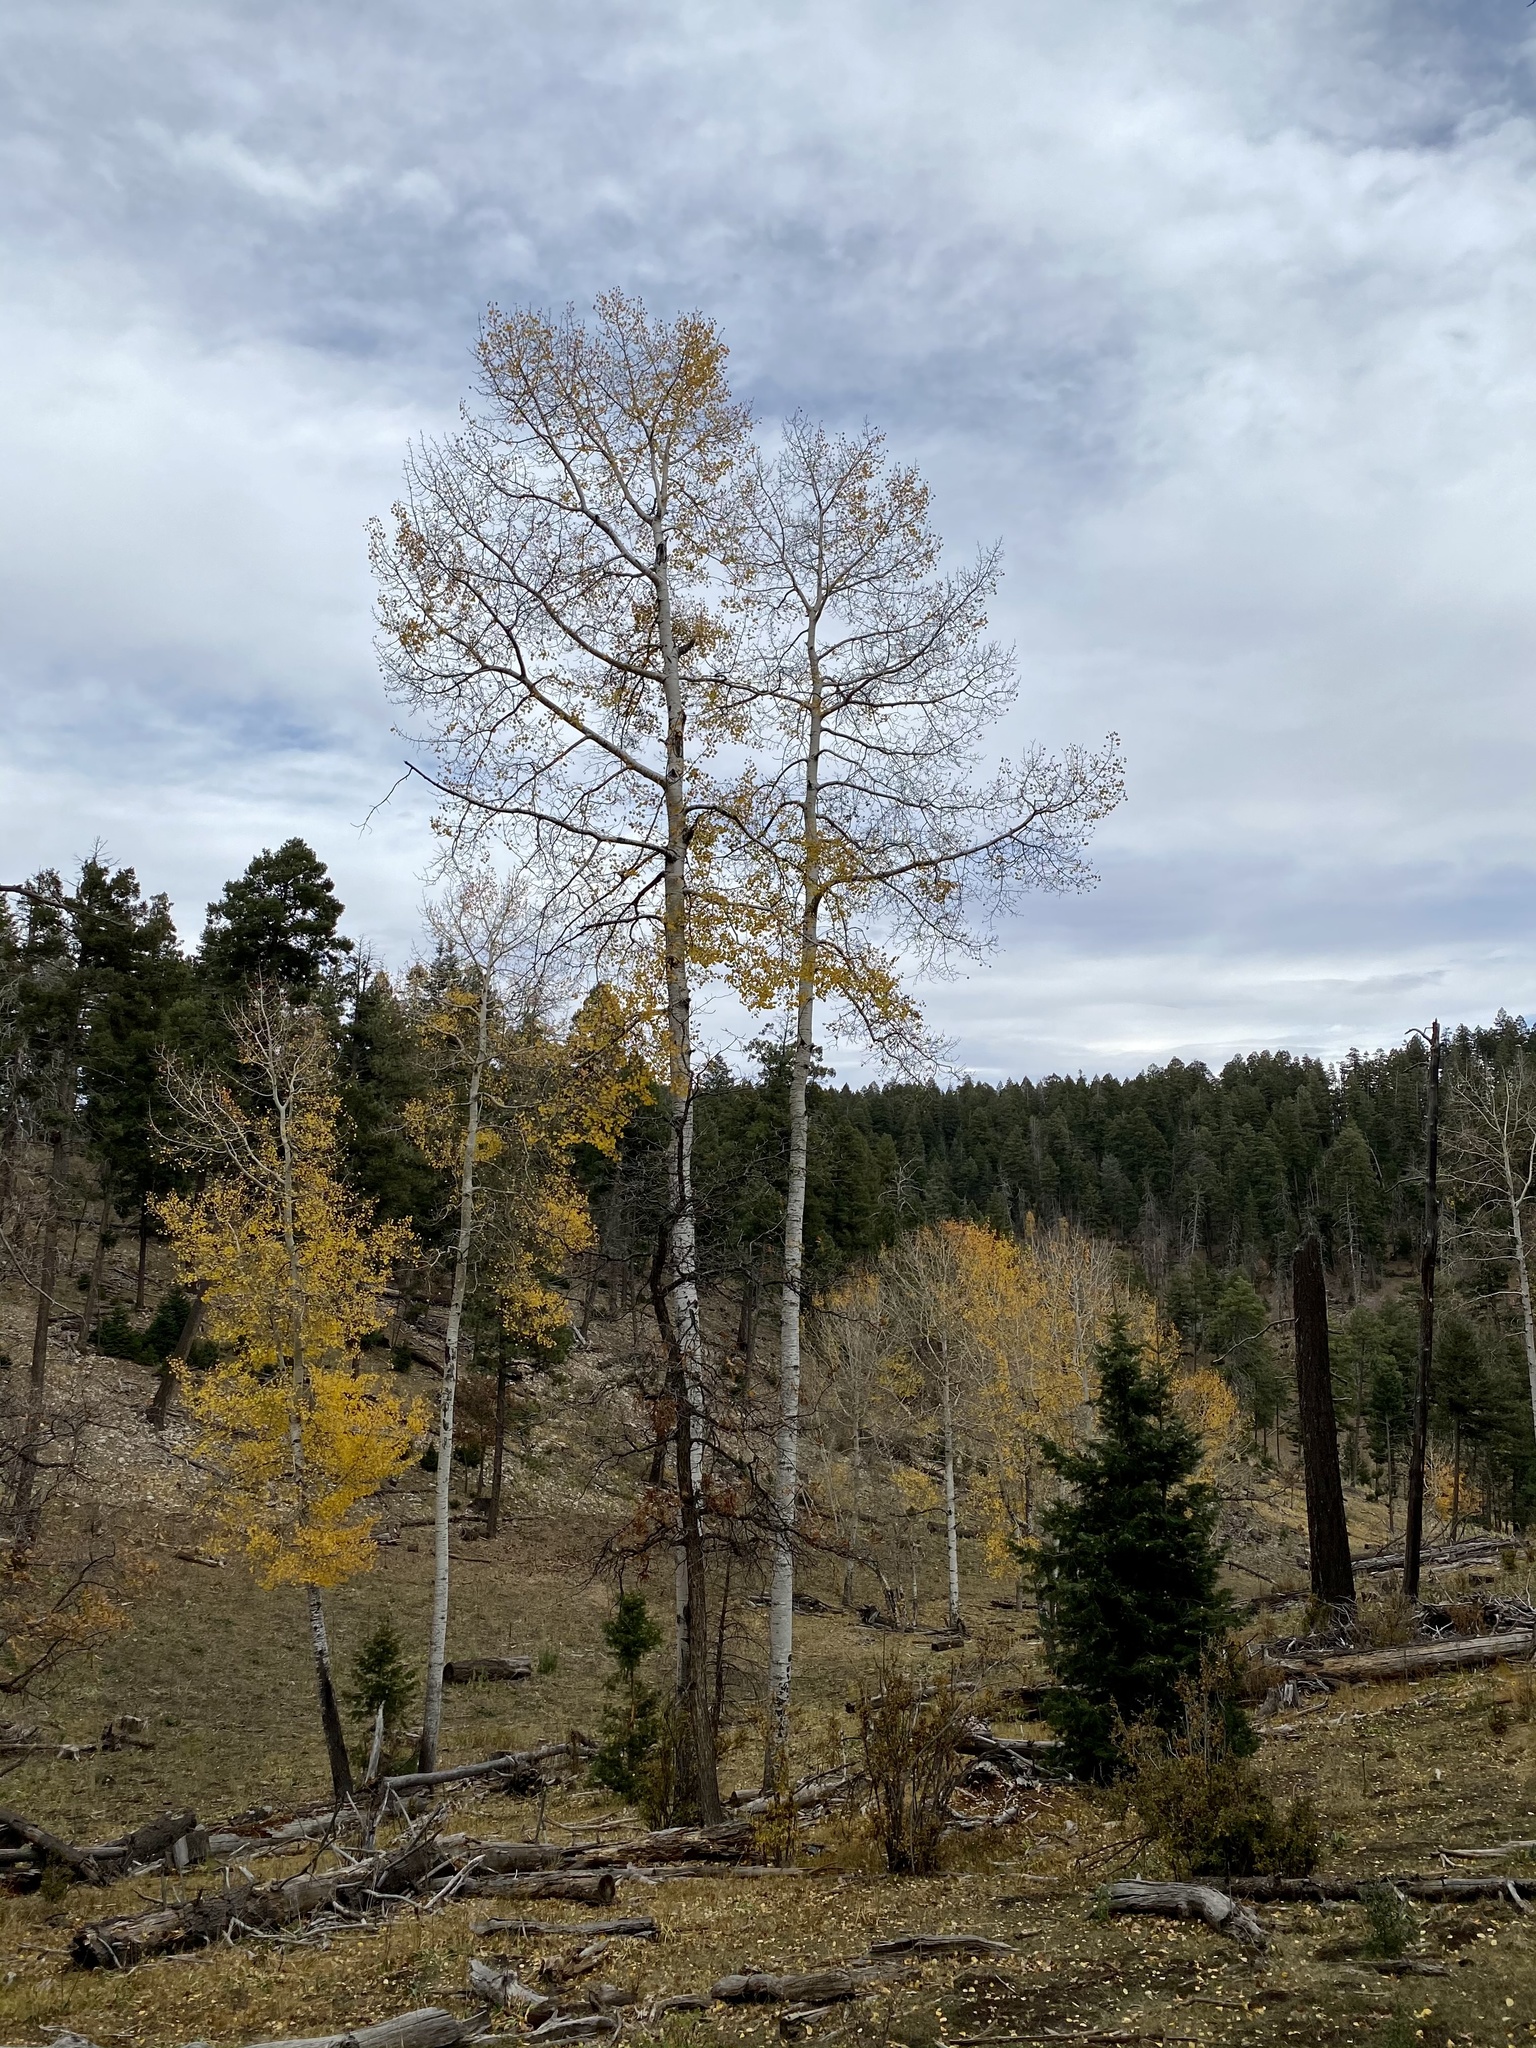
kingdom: Plantae
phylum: Tracheophyta
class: Magnoliopsida
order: Malpighiales
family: Salicaceae
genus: Populus
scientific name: Populus tremuloides
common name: Quaking aspen
